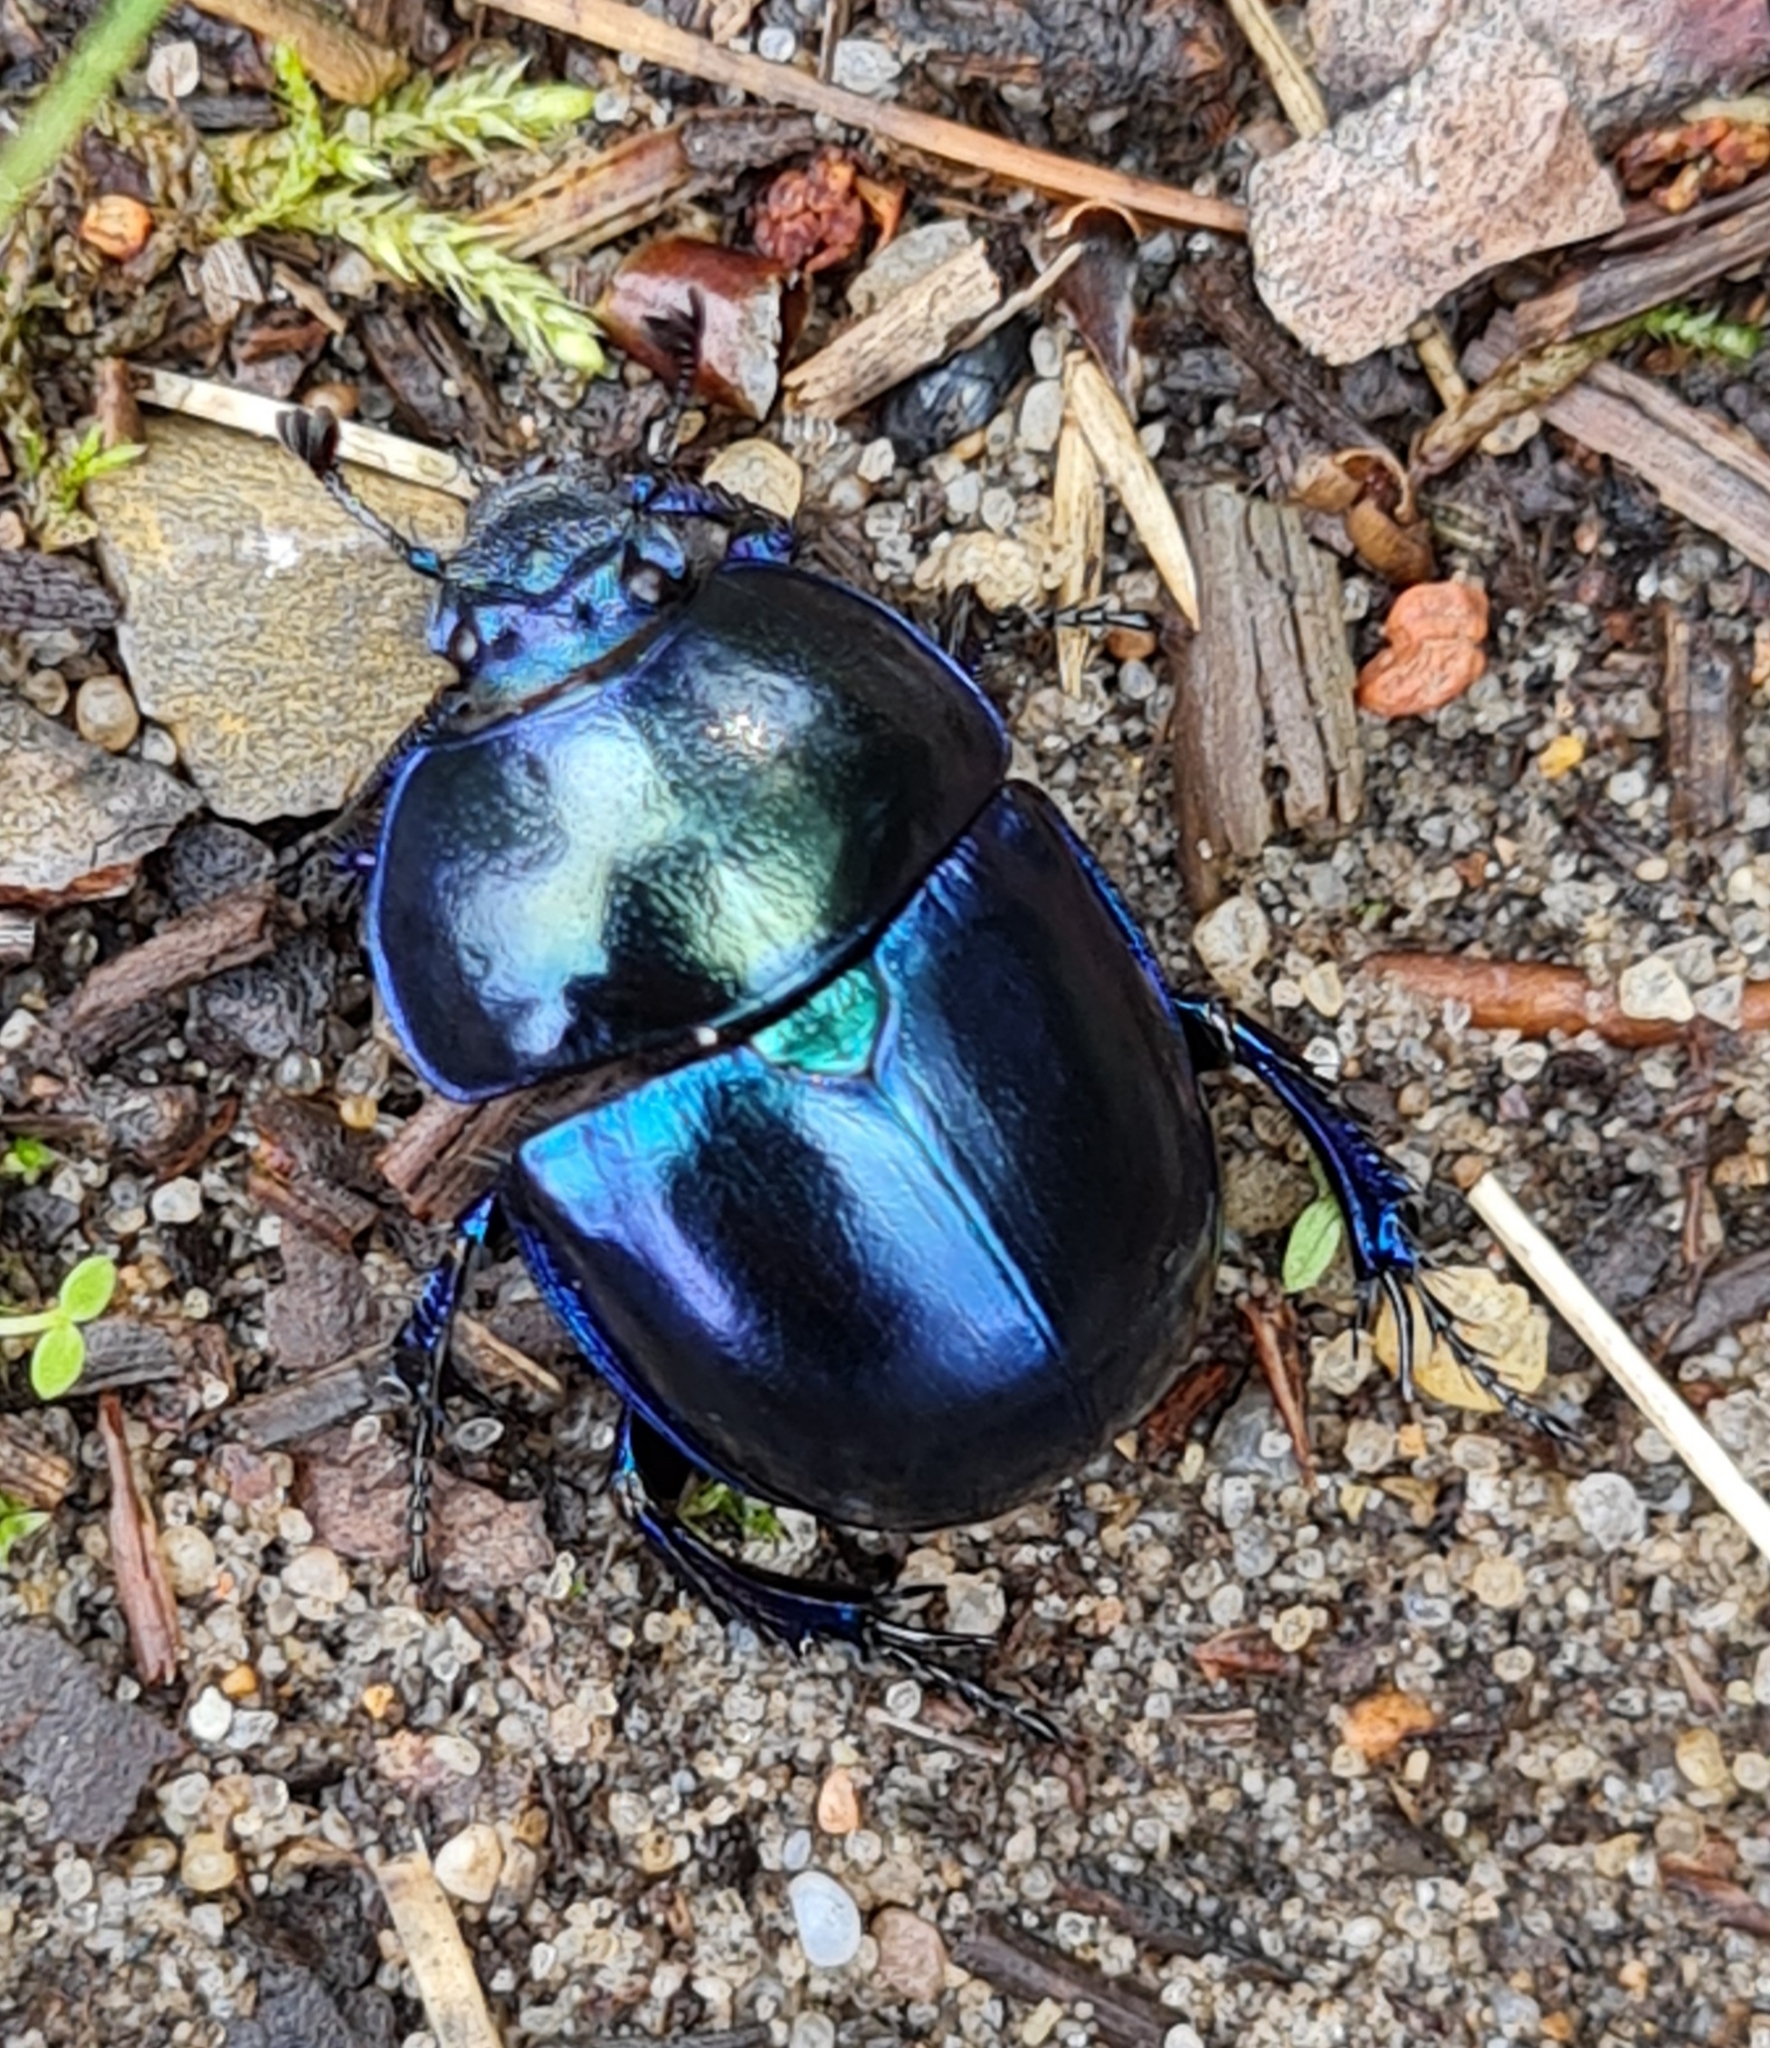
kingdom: Animalia
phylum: Arthropoda
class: Insecta
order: Coleoptera
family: Geotrupidae
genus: Trypocopris
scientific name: Trypocopris vernalis
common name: Spring dumbledor
